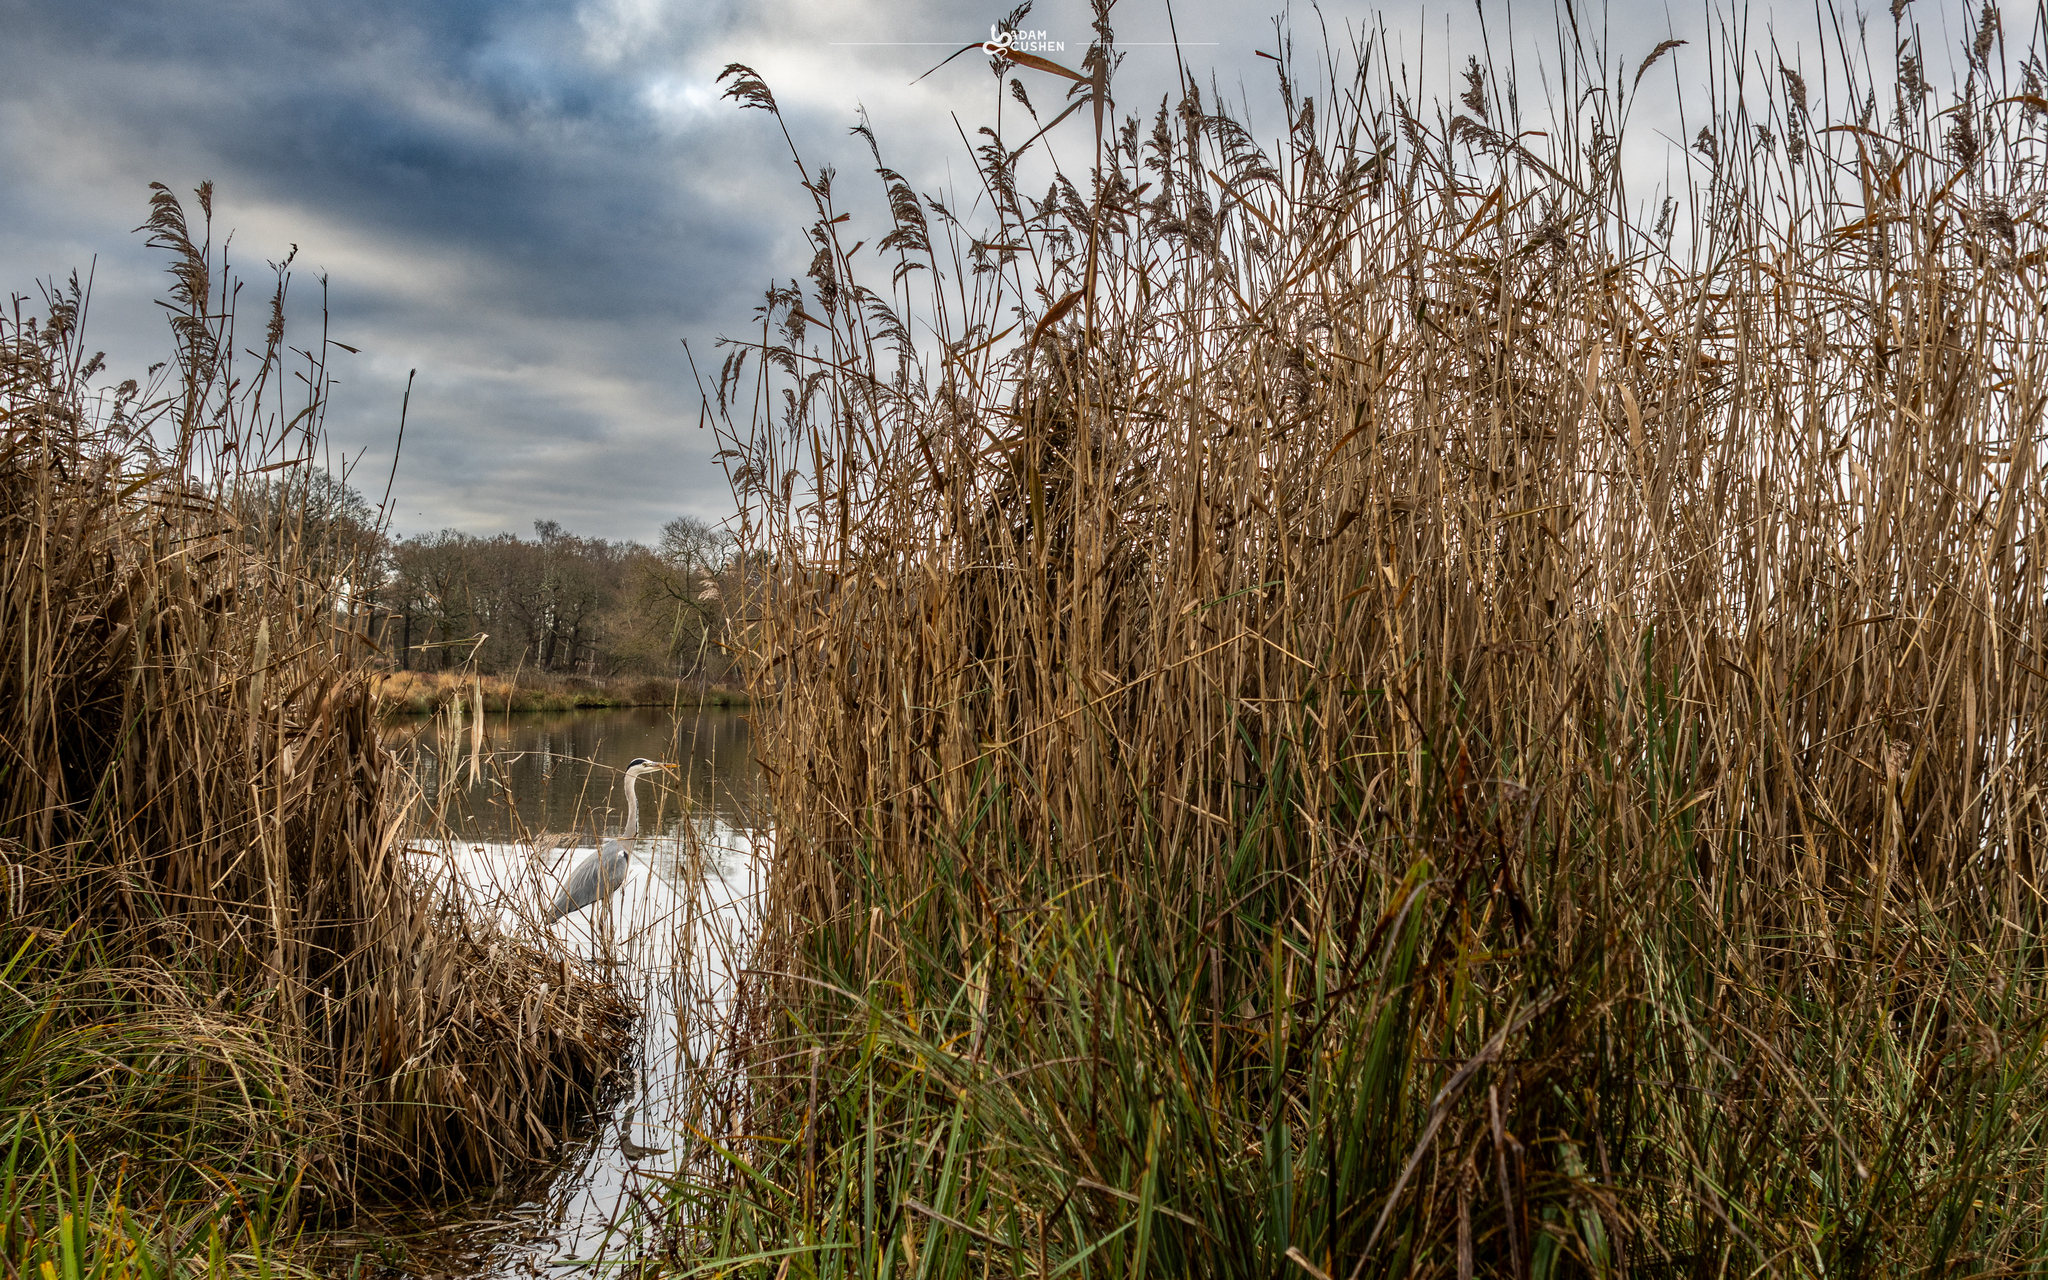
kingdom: Animalia
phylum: Chordata
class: Aves
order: Pelecaniformes
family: Ardeidae
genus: Ardea
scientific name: Ardea cinerea
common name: Grey heron
